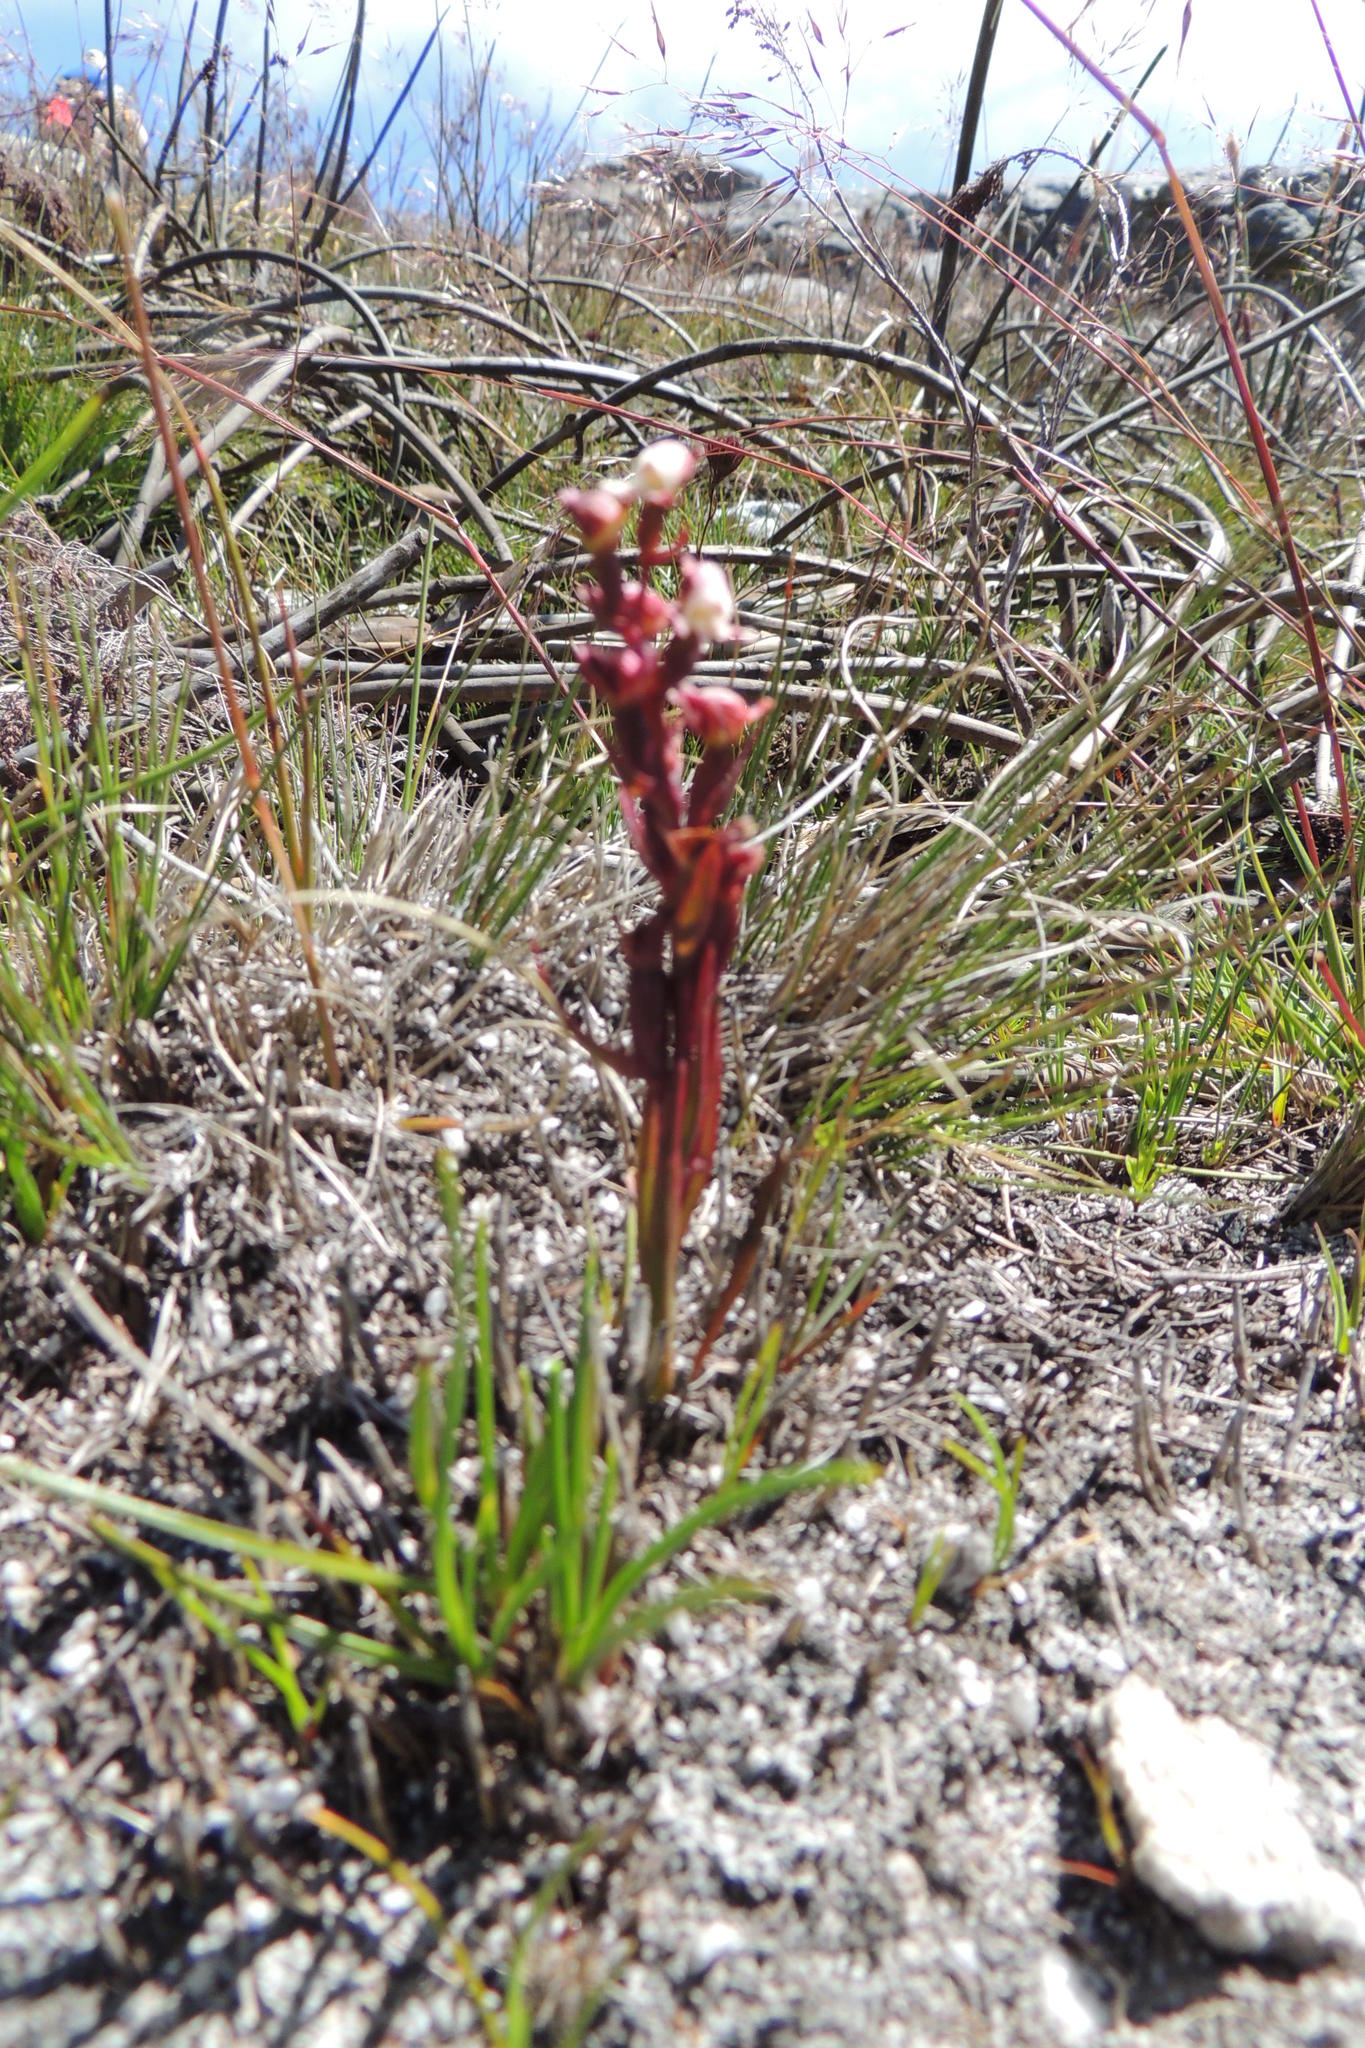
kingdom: Plantae
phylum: Tracheophyta
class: Liliopsida
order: Asparagales
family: Orchidaceae
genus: Disa
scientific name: Disa ocellata
